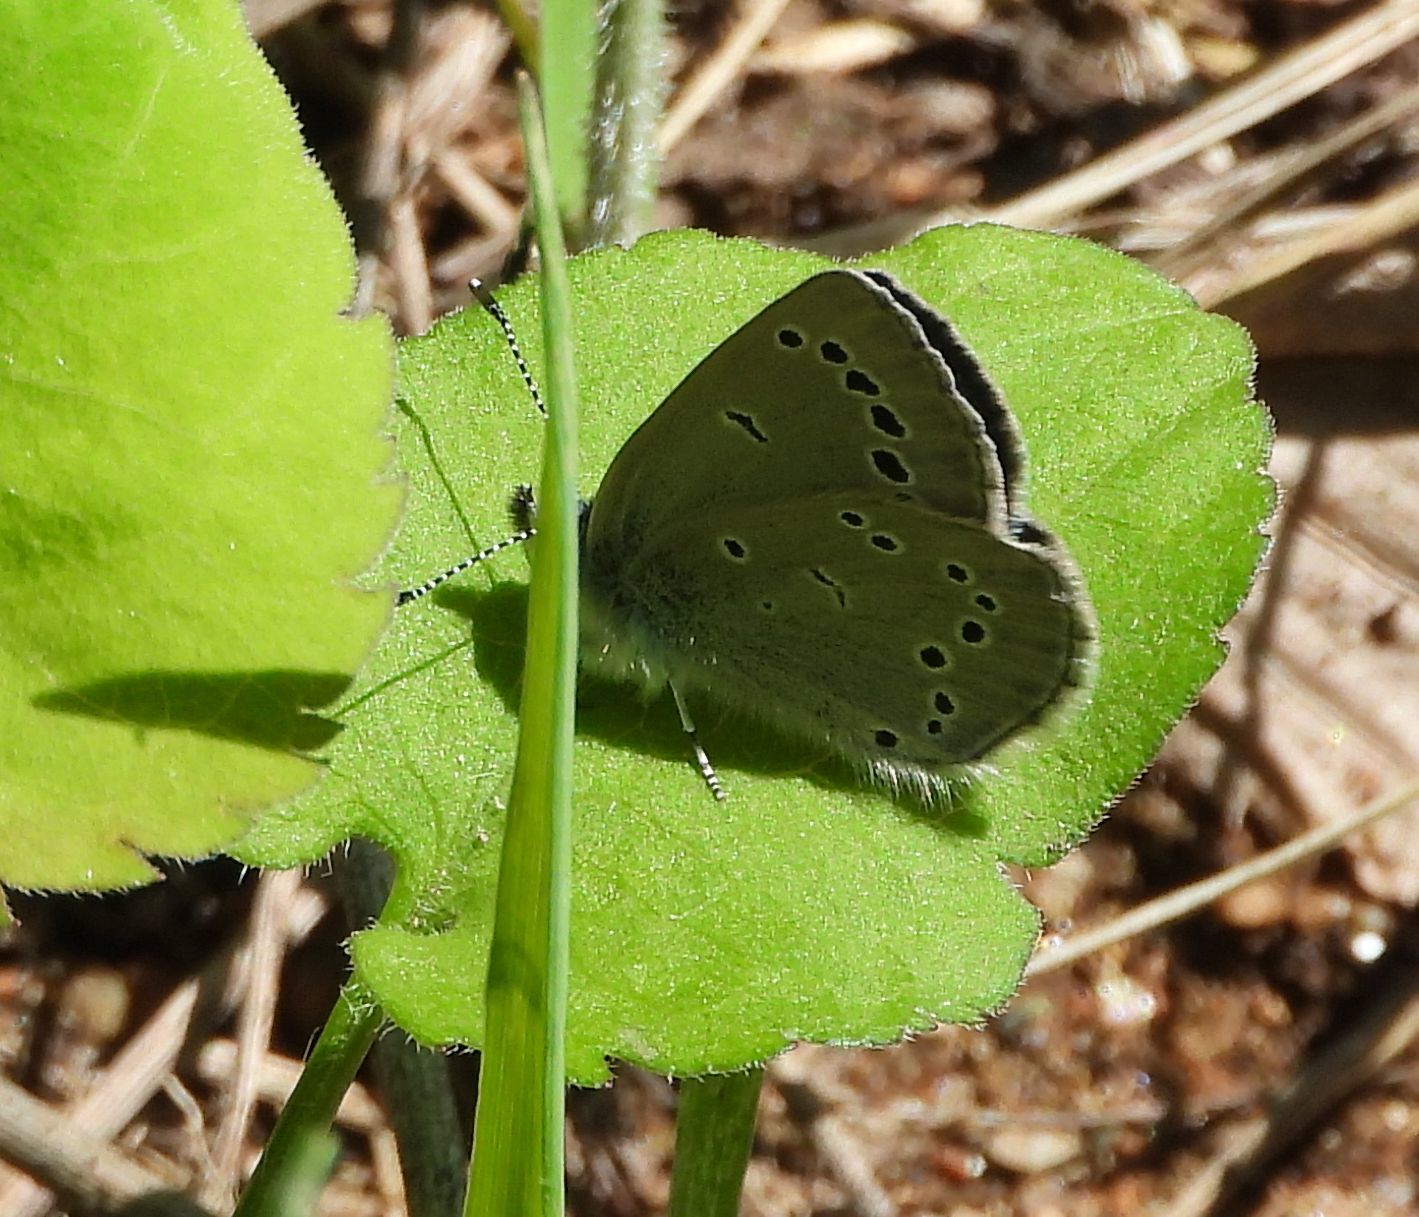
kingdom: Animalia
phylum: Arthropoda
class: Insecta
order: Lepidoptera
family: Lycaenidae
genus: Glaucopsyche
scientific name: Glaucopsyche lygdamus
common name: Silvery blue
